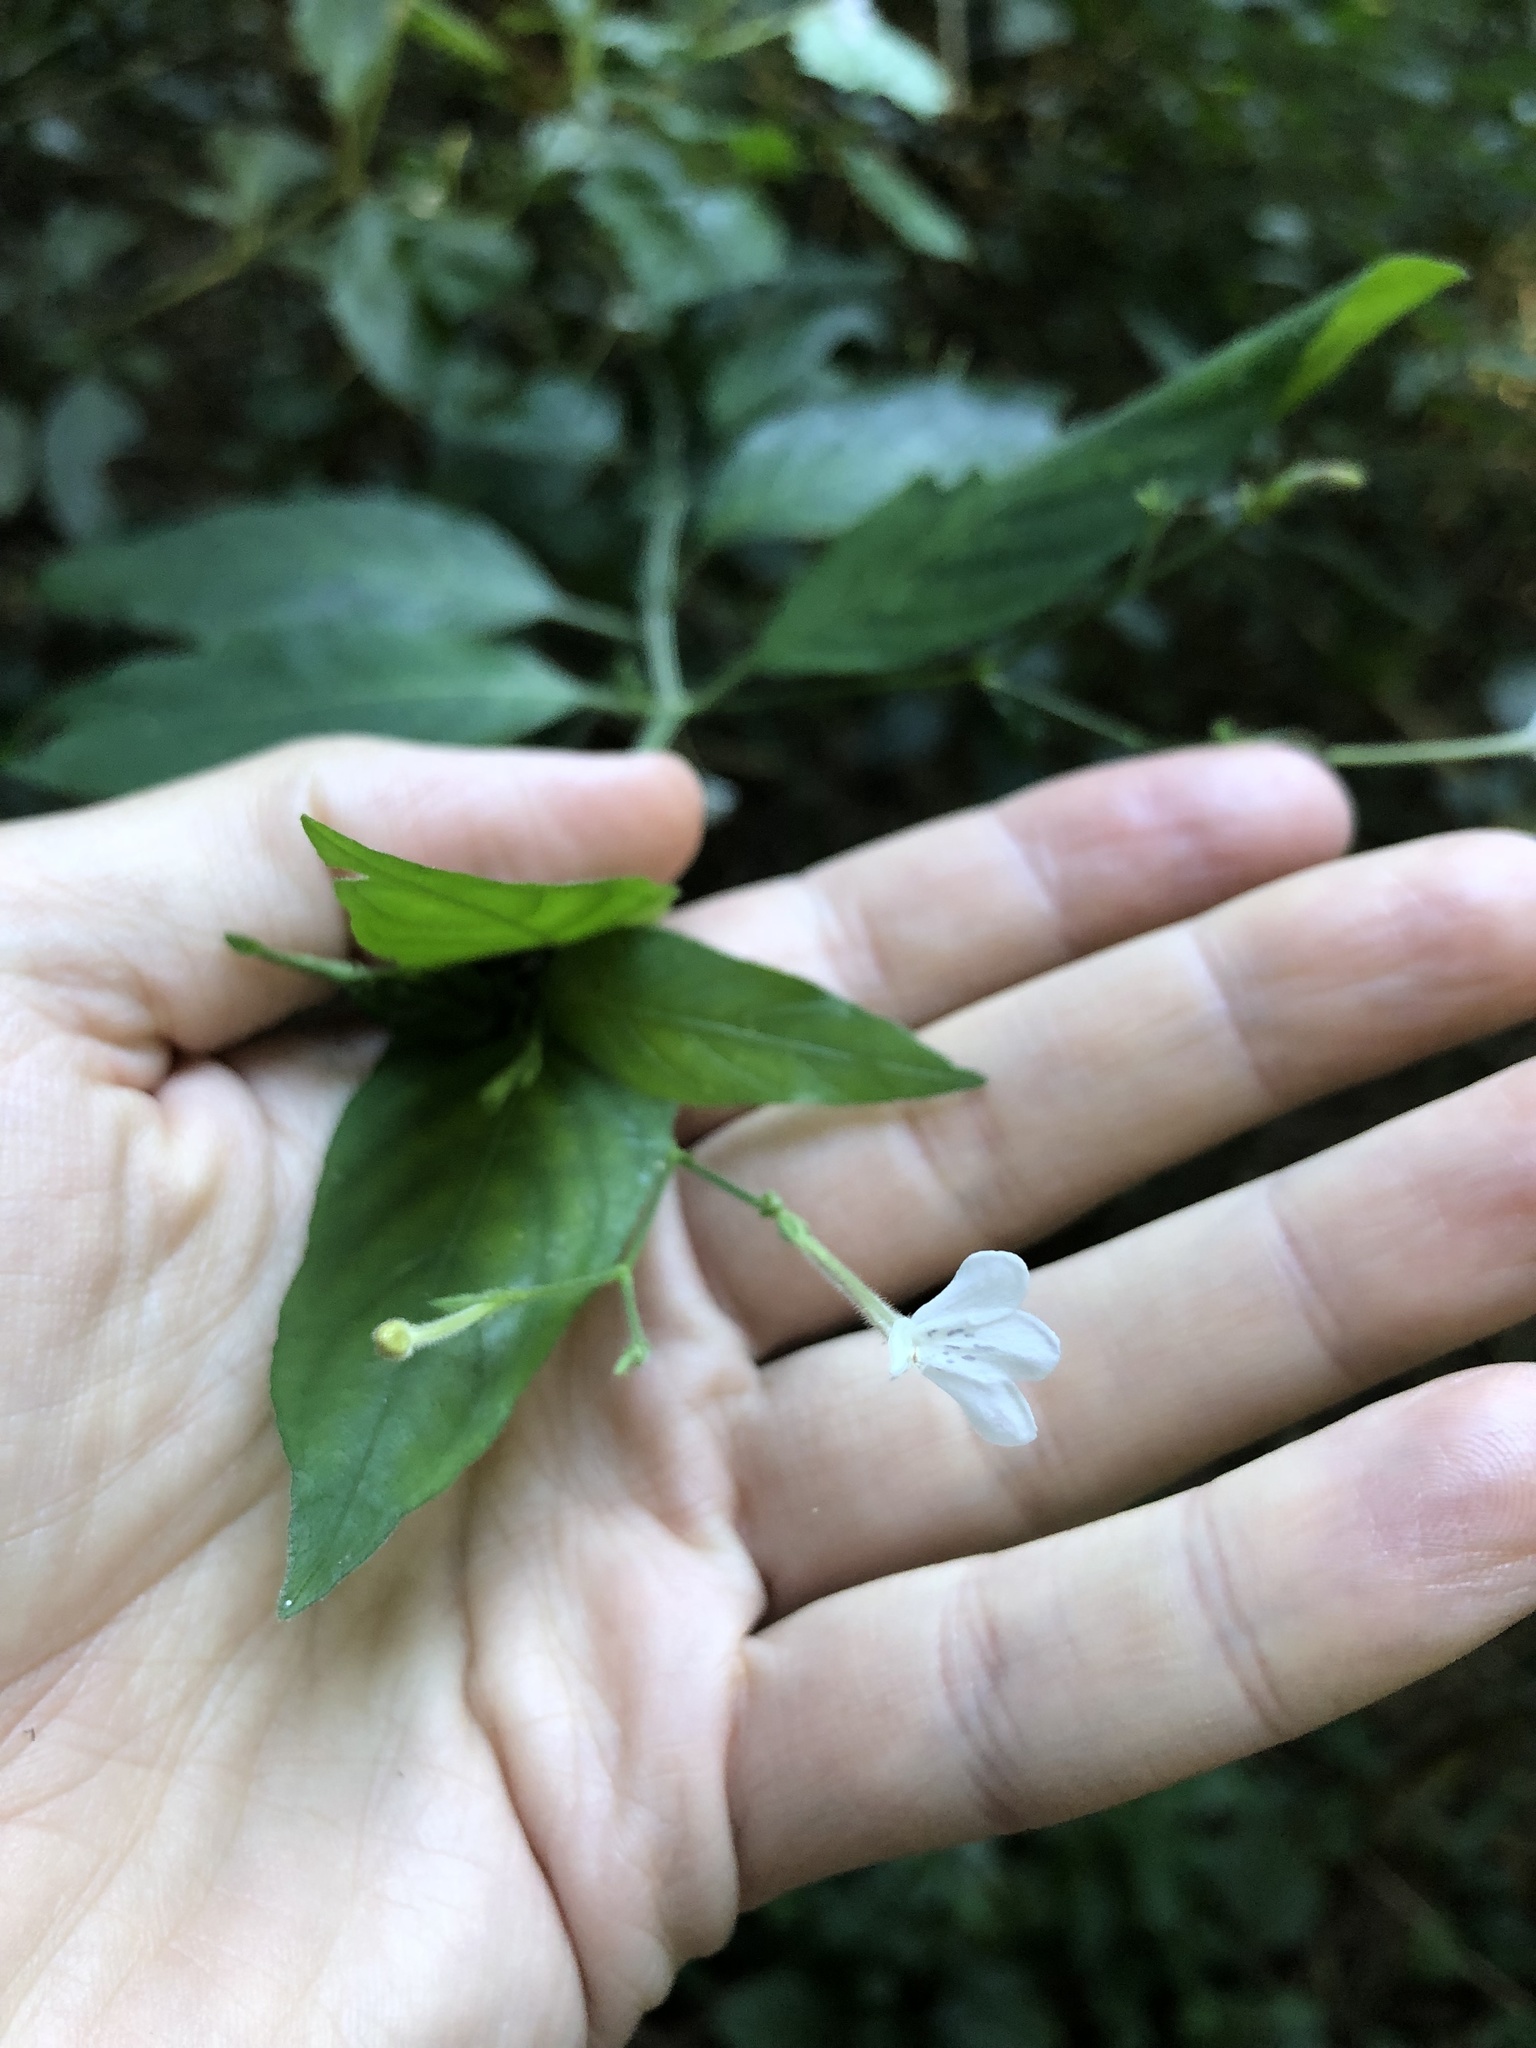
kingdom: Plantae
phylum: Tracheophyta
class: Magnoliopsida
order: Lamiales
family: Acanthaceae
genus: Rhinacanthus
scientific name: Rhinacanthus gracilis
